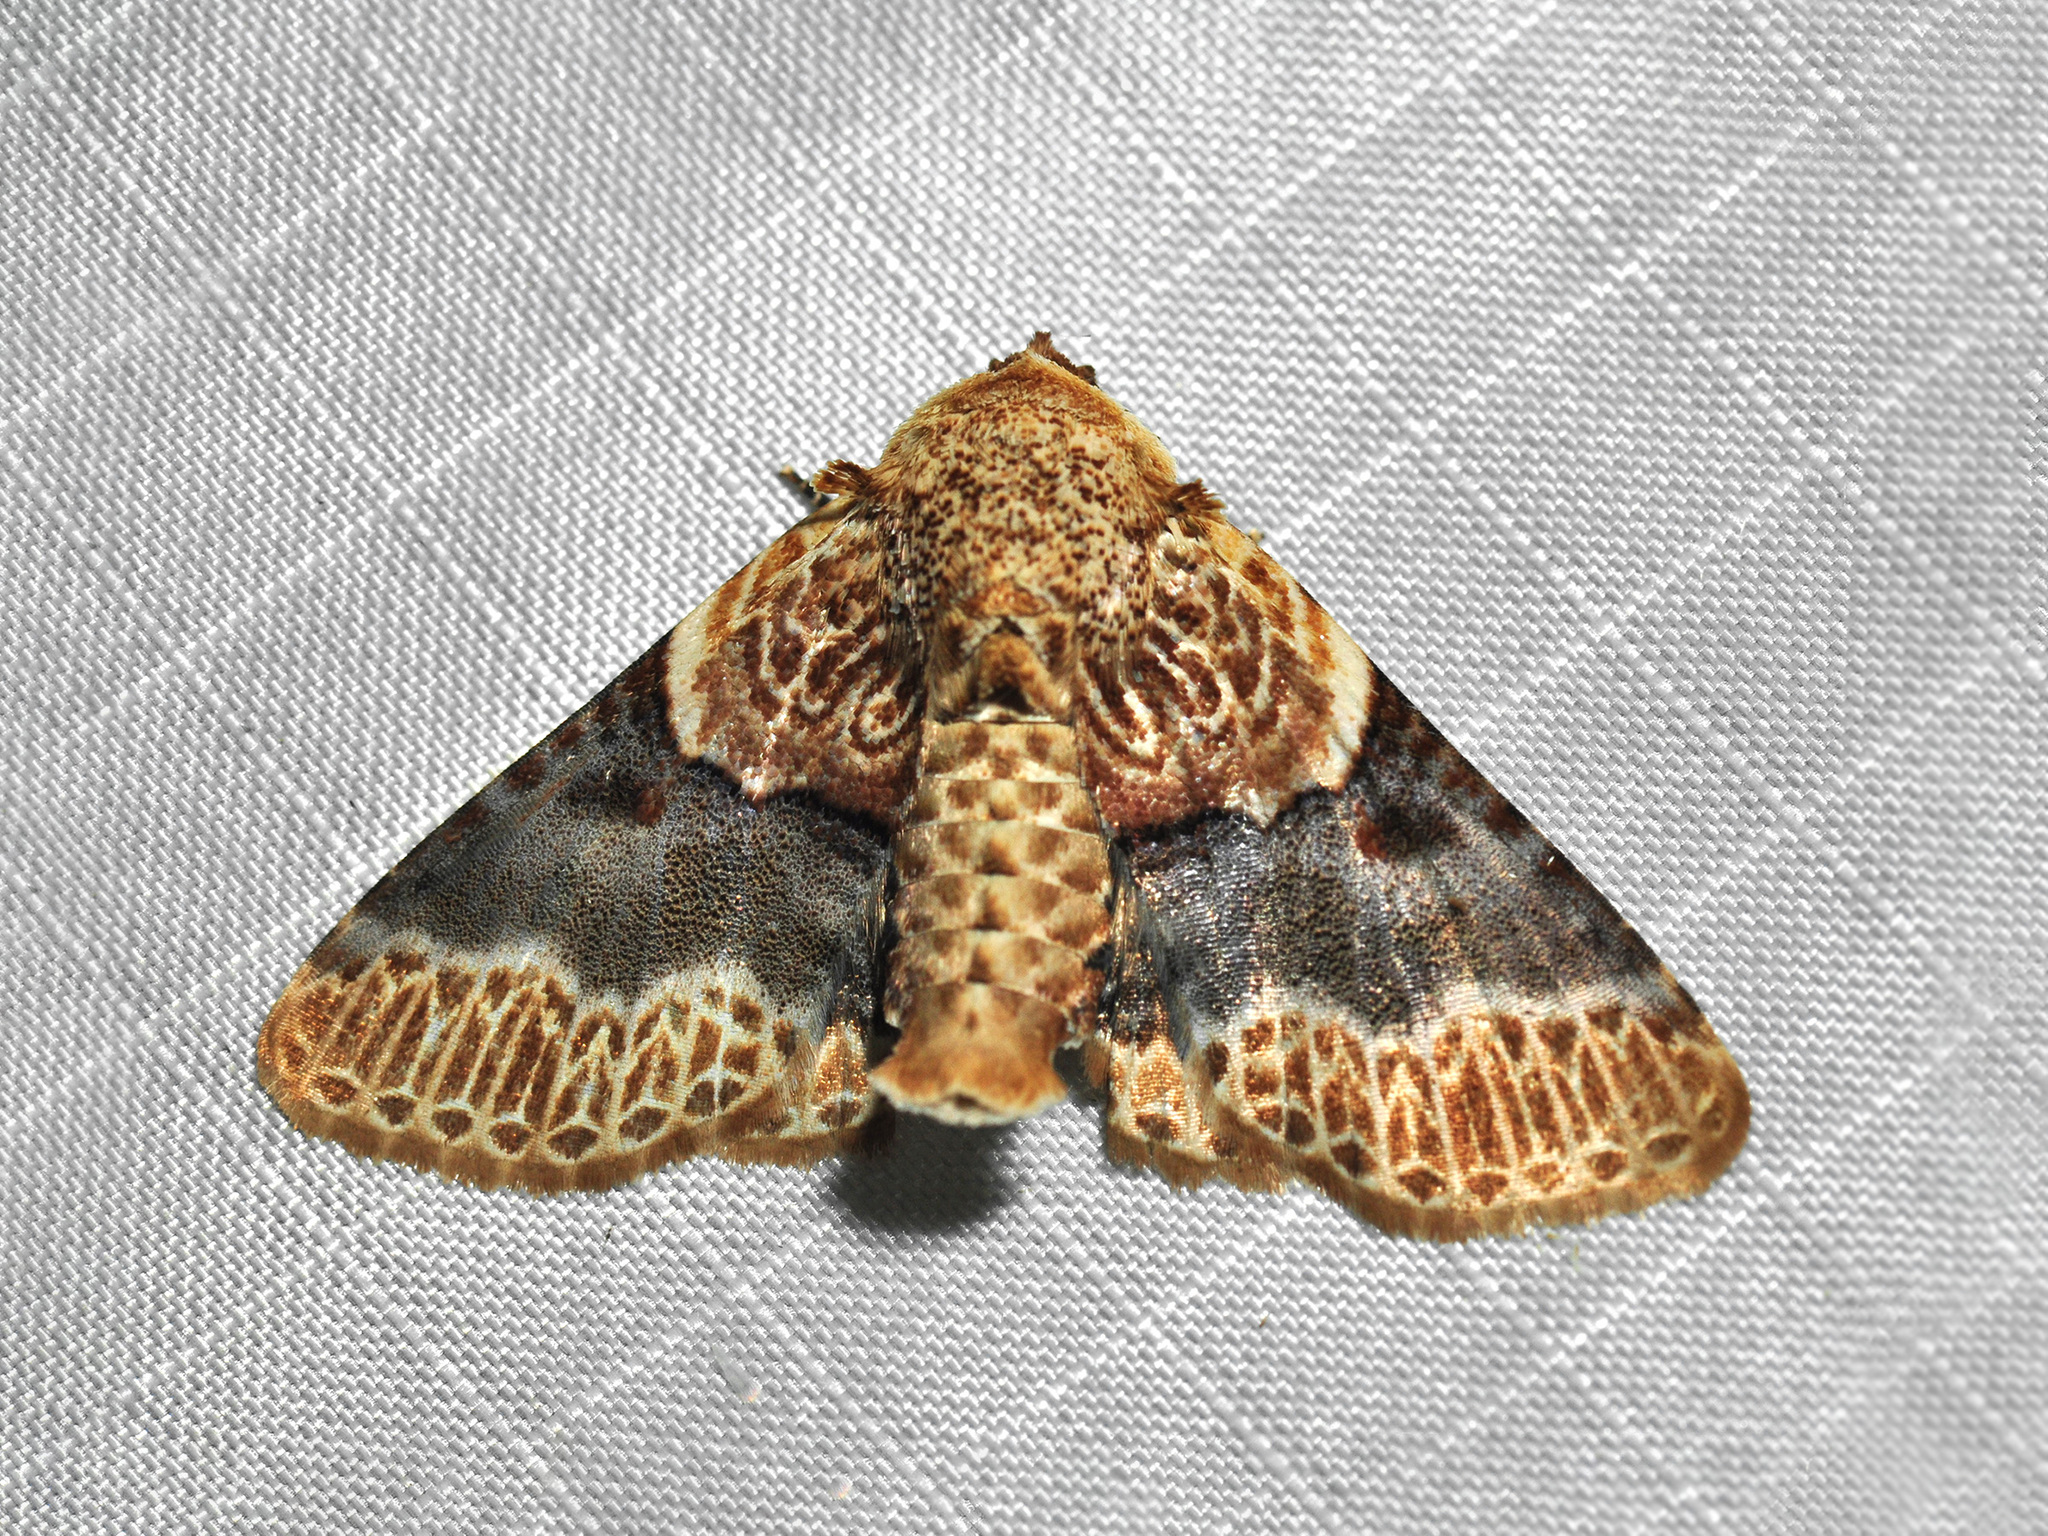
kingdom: Animalia
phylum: Arthropoda
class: Insecta
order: Lepidoptera
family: Erebidae
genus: Diomea
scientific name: Diomea
